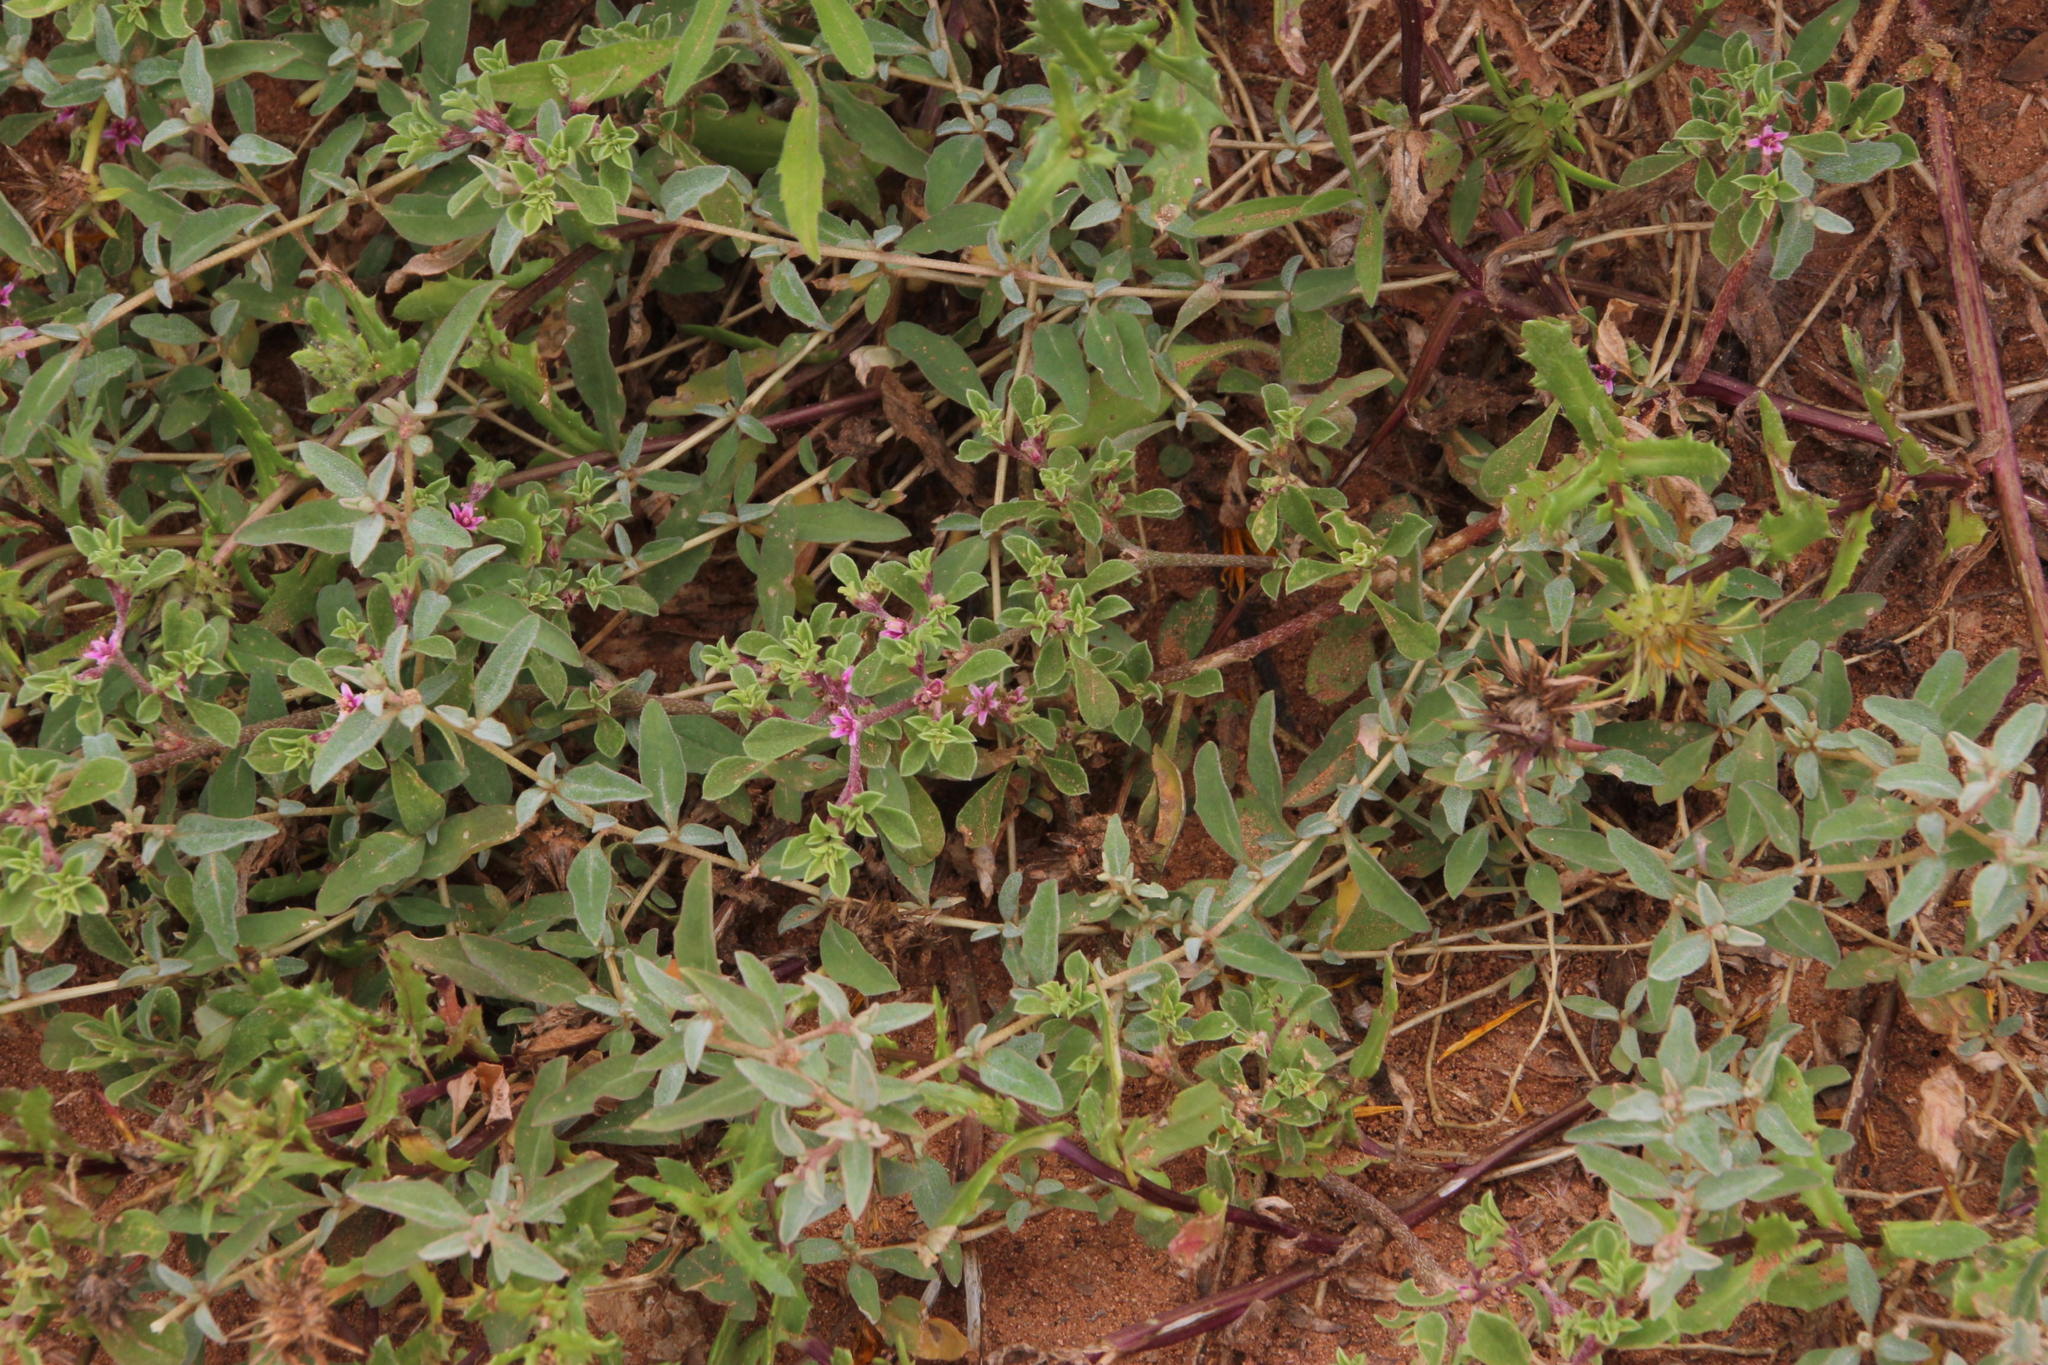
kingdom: Plantae
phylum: Tracheophyta
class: Magnoliopsida
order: Caryophyllales
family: Aizoaceae
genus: Aizoon
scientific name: Aizoon sarcophyllum
